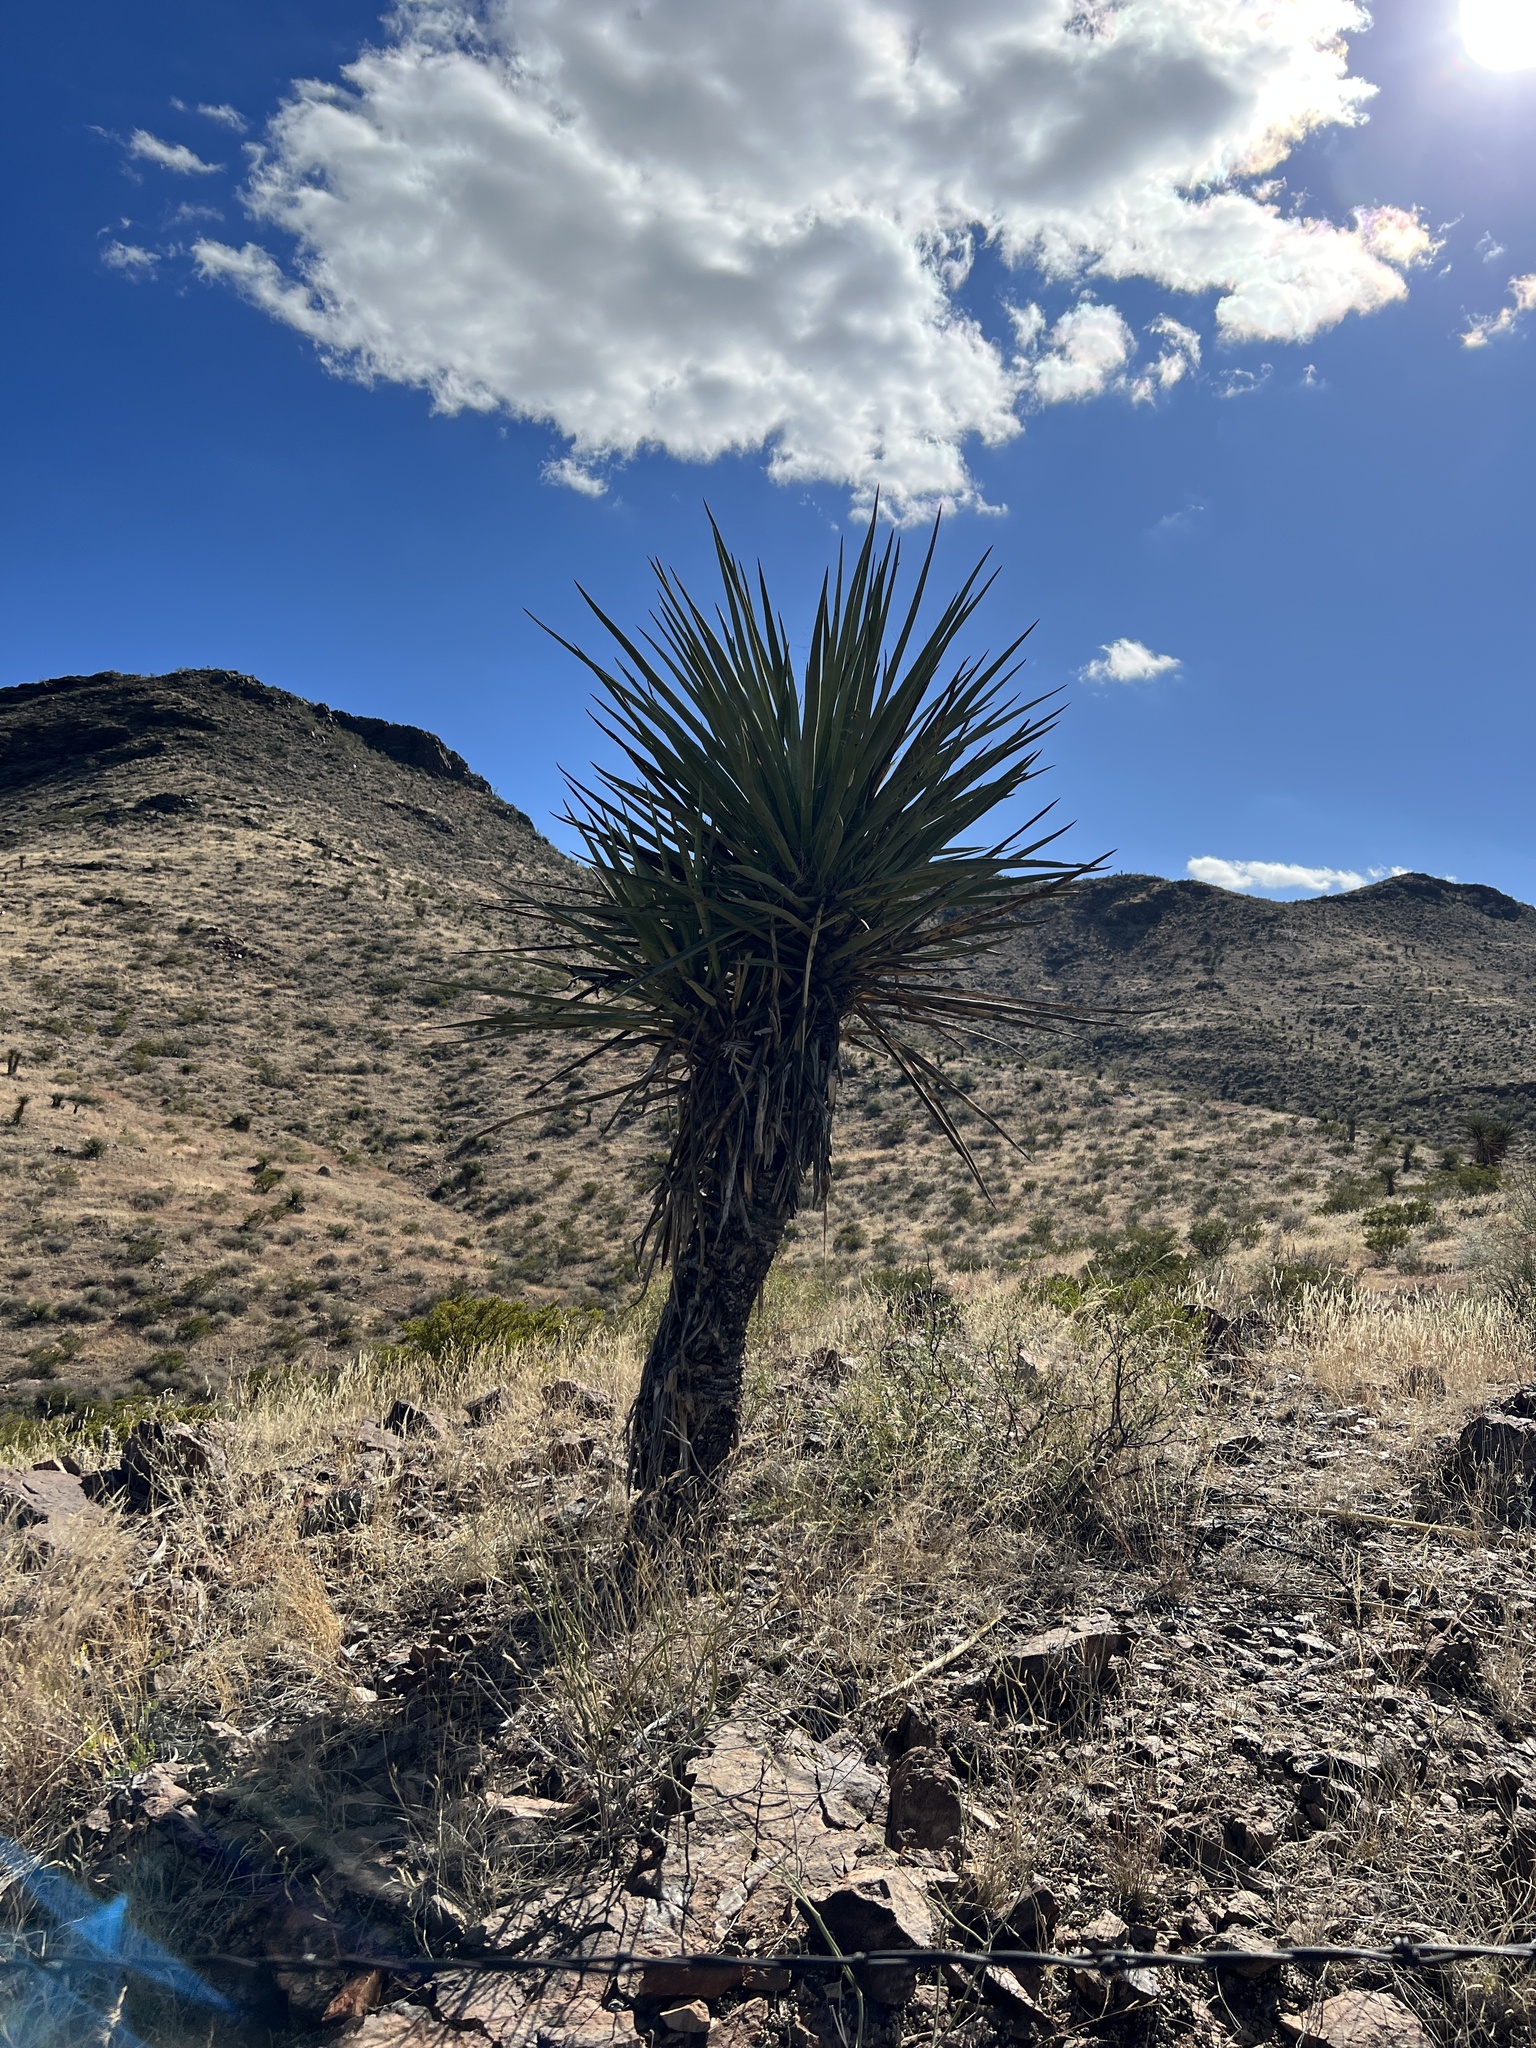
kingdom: Plantae
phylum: Tracheophyta
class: Liliopsida
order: Asparagales
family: Asparagaceae
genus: Yucca
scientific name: Yucca treculiana
